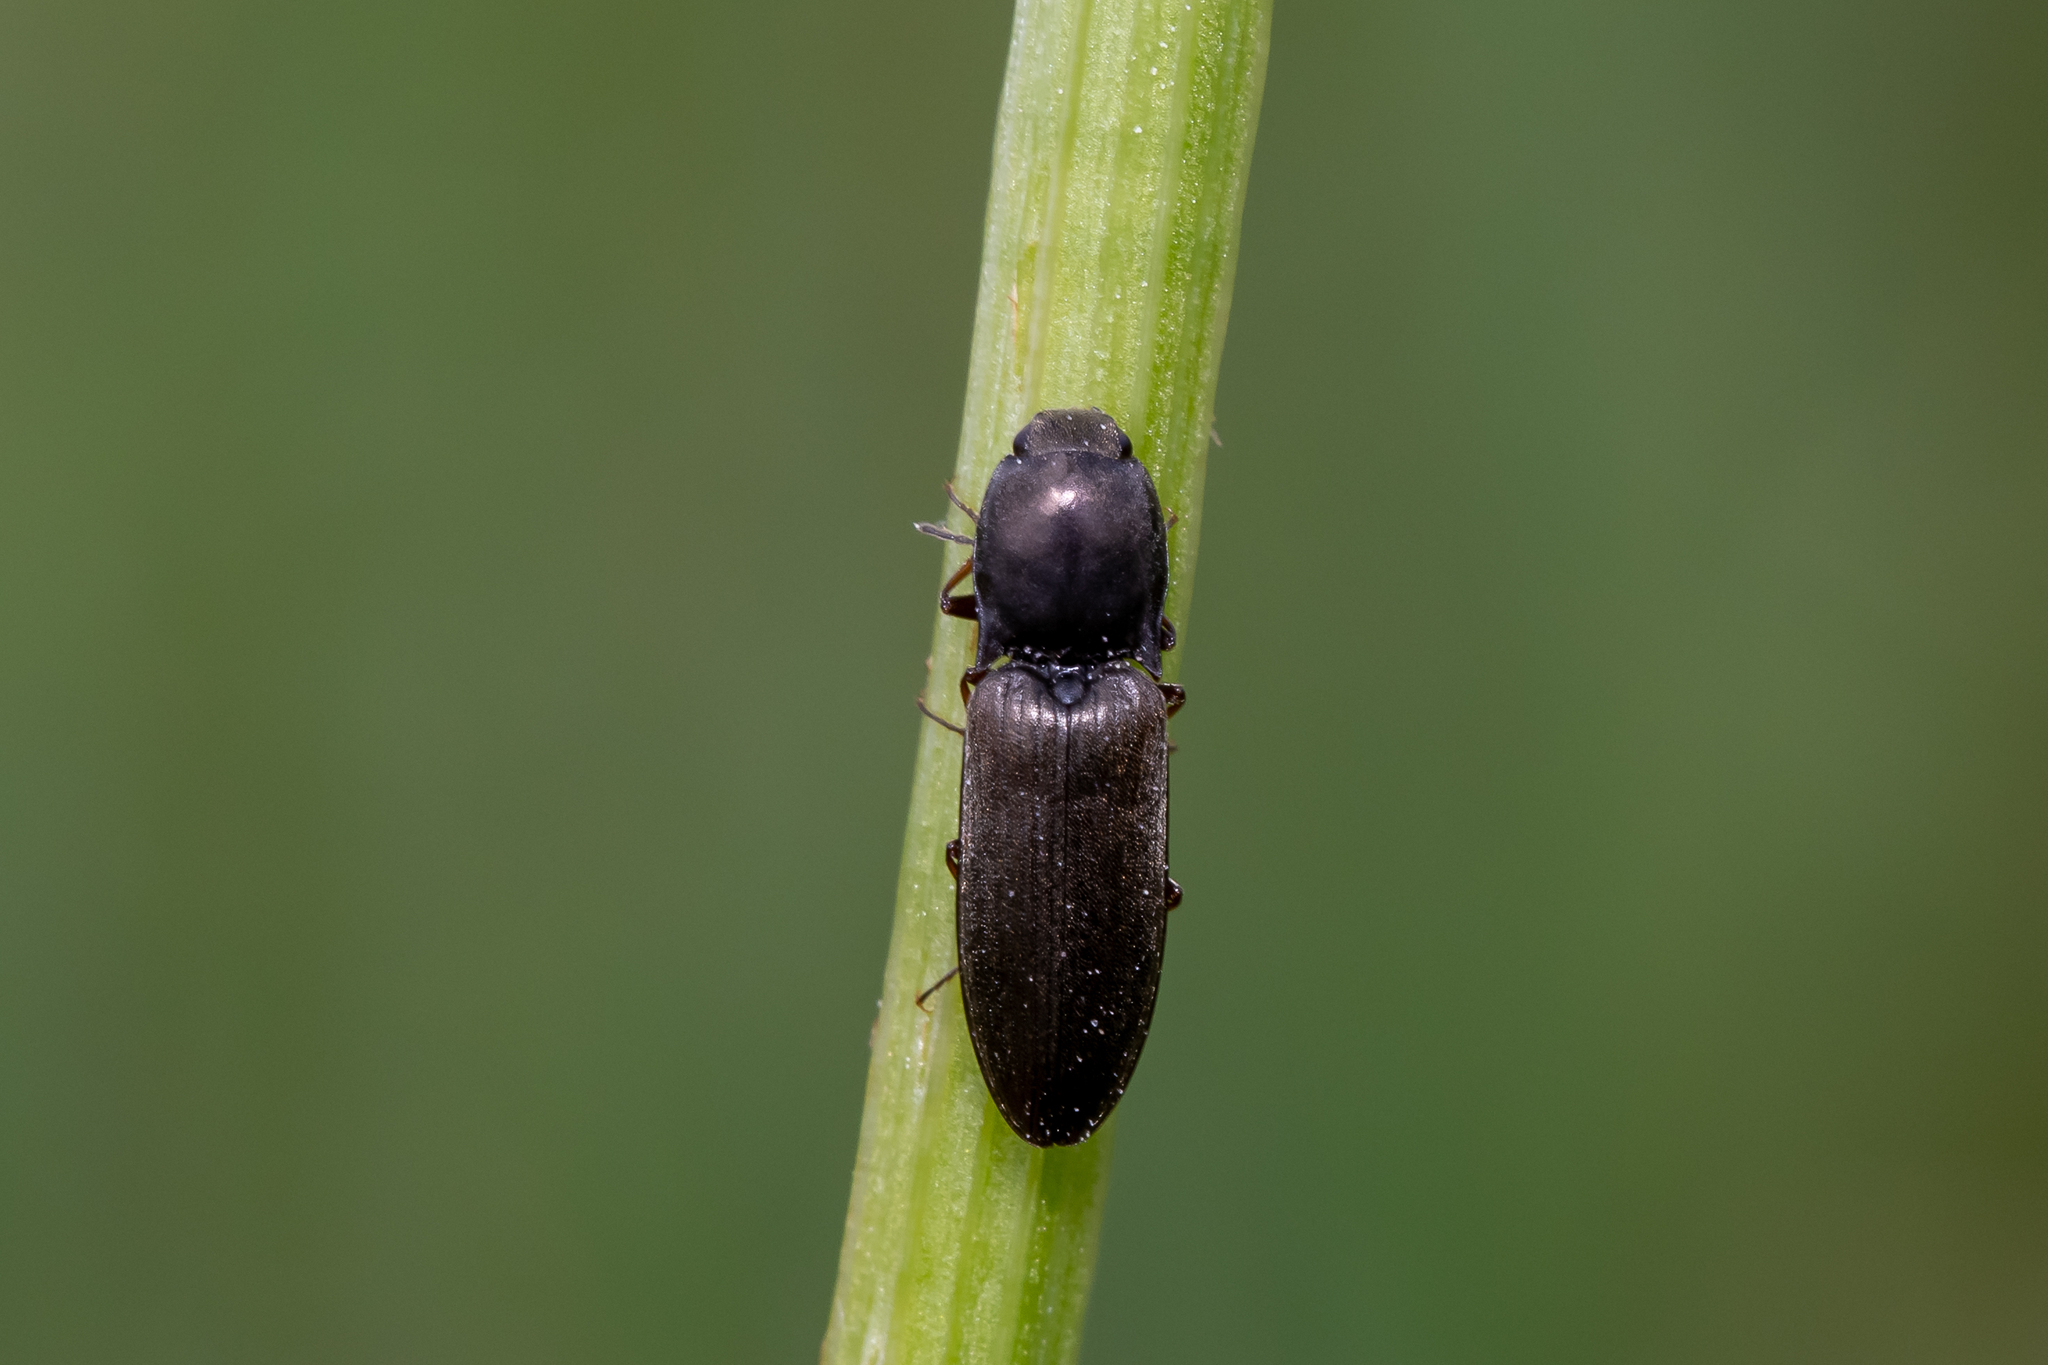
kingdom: Animalia
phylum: Arthropoda
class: Insecta
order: Coleoptera
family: Elateridae
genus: Aplotarsus
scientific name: Aplotarsus incanus
